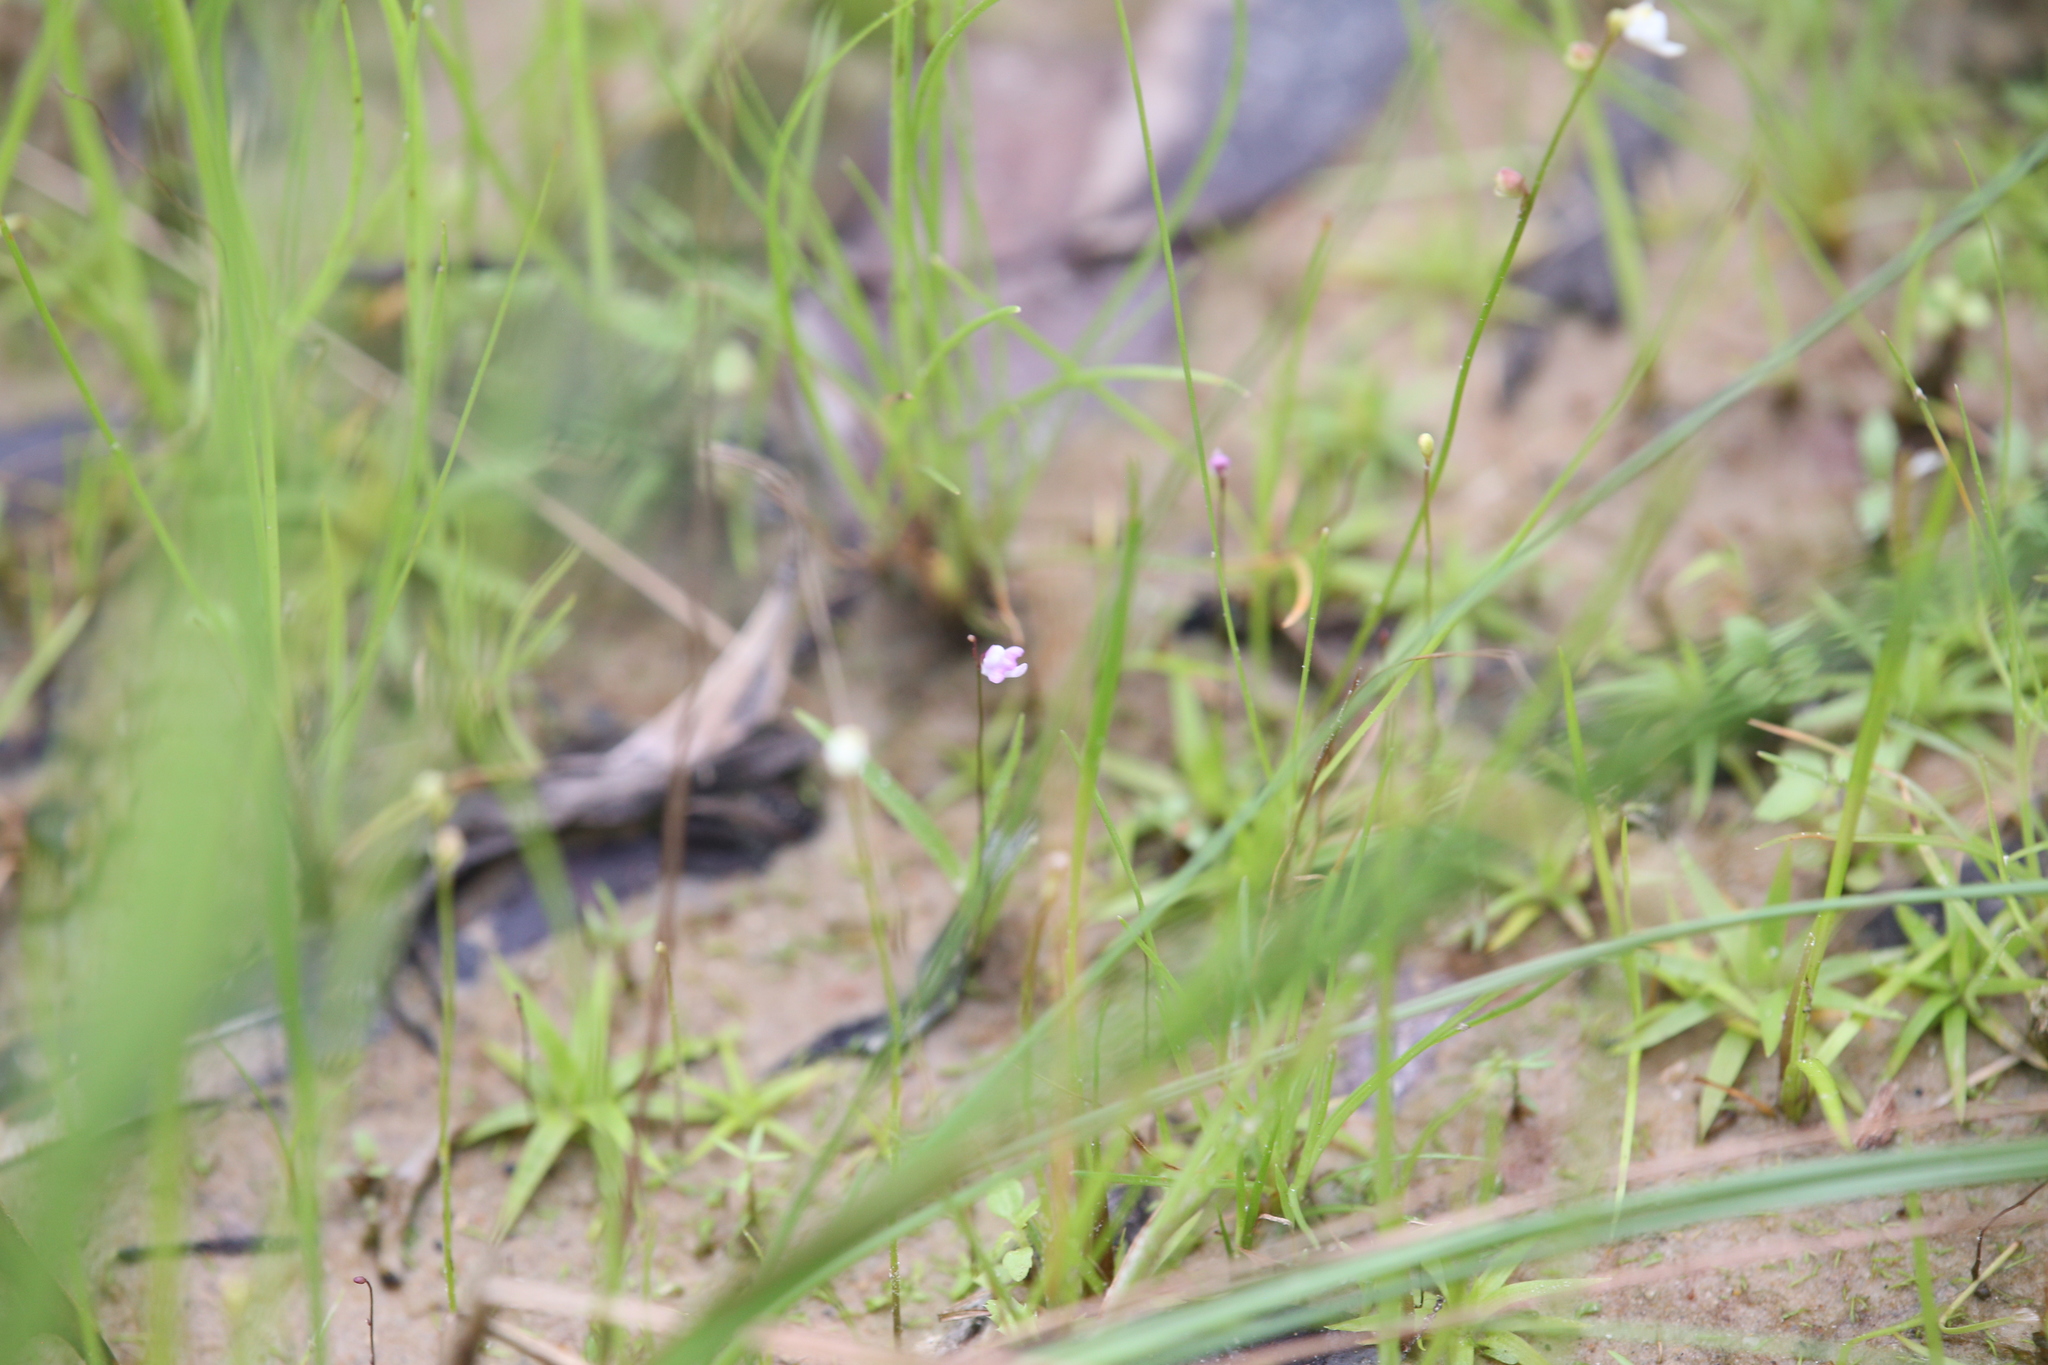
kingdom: Plantae
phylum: Tracheophyta
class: Magnoliopsida
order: Lamiales
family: Lentibulariaceae
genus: Utricularia
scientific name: Utricularia minutissima
